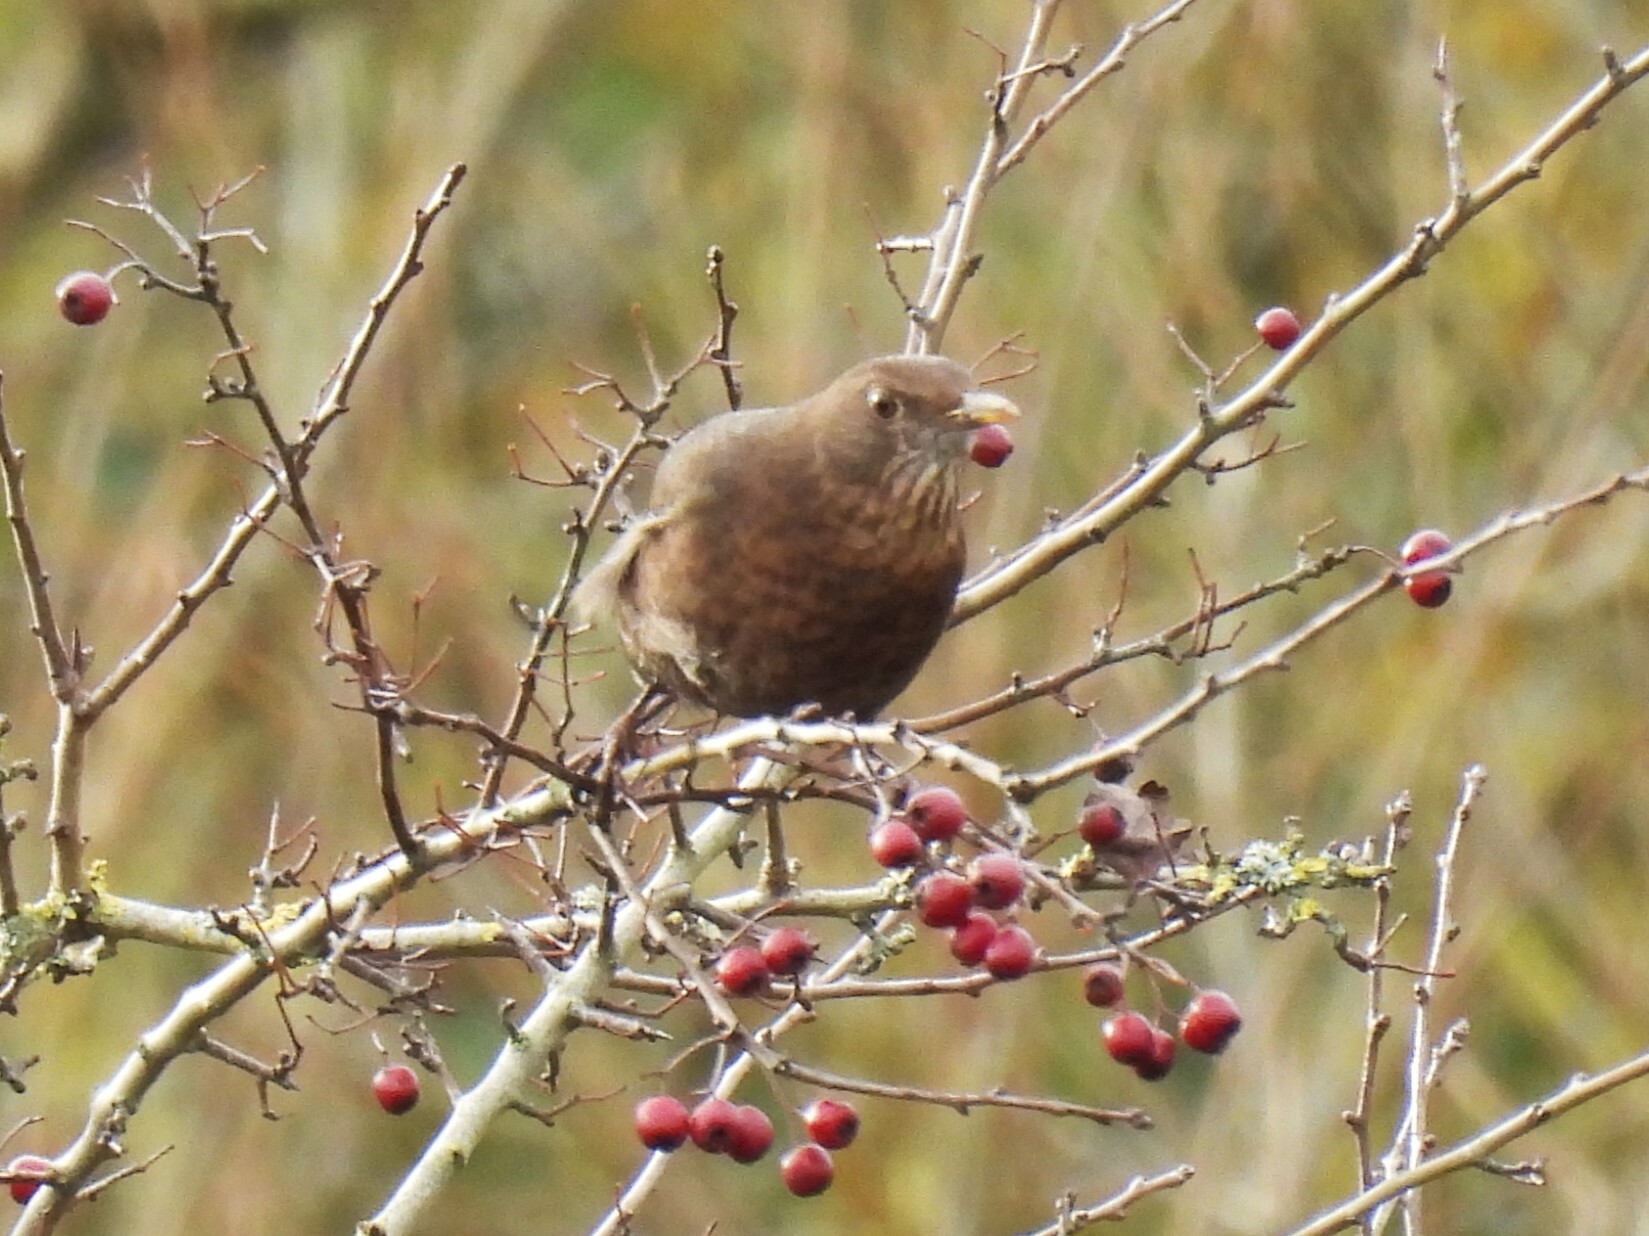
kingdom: Animalia
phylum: Chordata
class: Aves
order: Passeriformes
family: Turdidae
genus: Turdus
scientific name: Turdus merula
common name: Common blackbird
